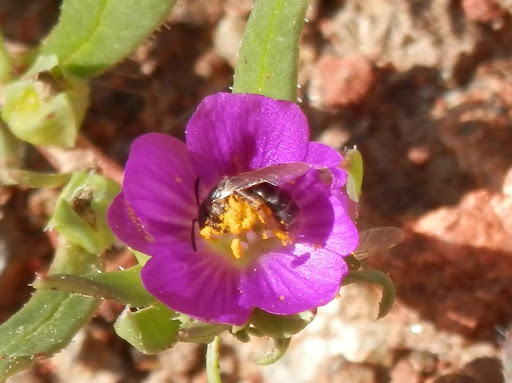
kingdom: Plantae
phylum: Tracheophyta
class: Magnoliopsida
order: Caryophyllales
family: Montiaceae
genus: Calandrinia
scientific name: Calandrinia menziesii
